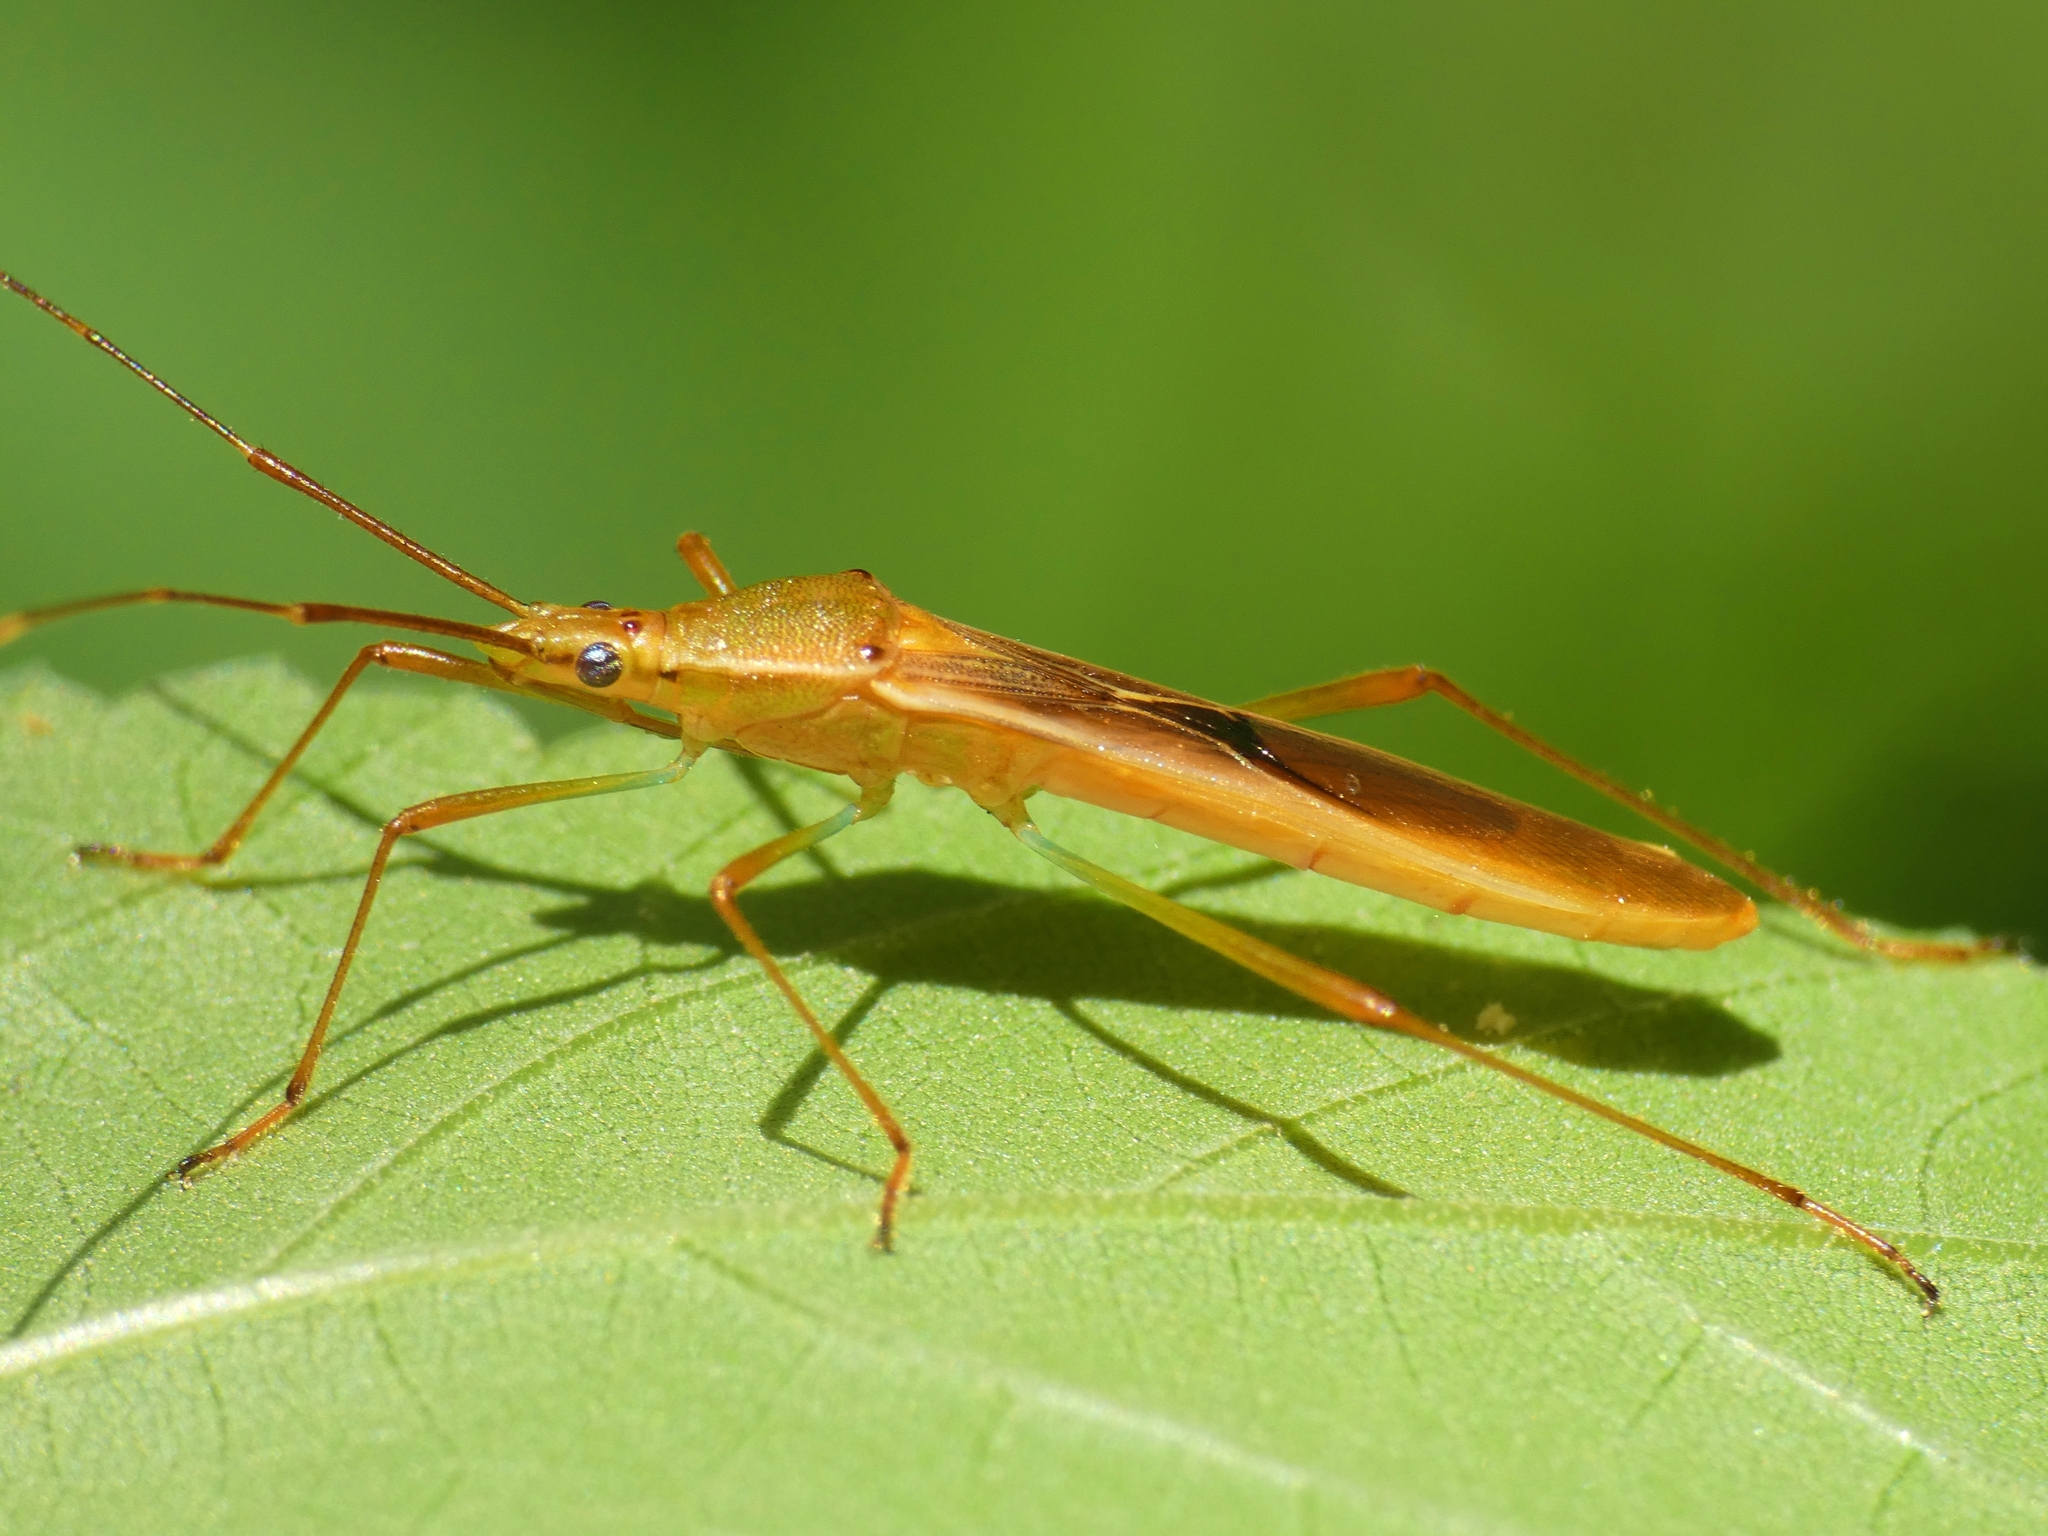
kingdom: Animalia
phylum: Arthropoda
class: Insecta
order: Hemiptera
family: Alydidae
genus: Leptocorisa
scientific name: Leptocorisa acuta
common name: Gandhi bug
